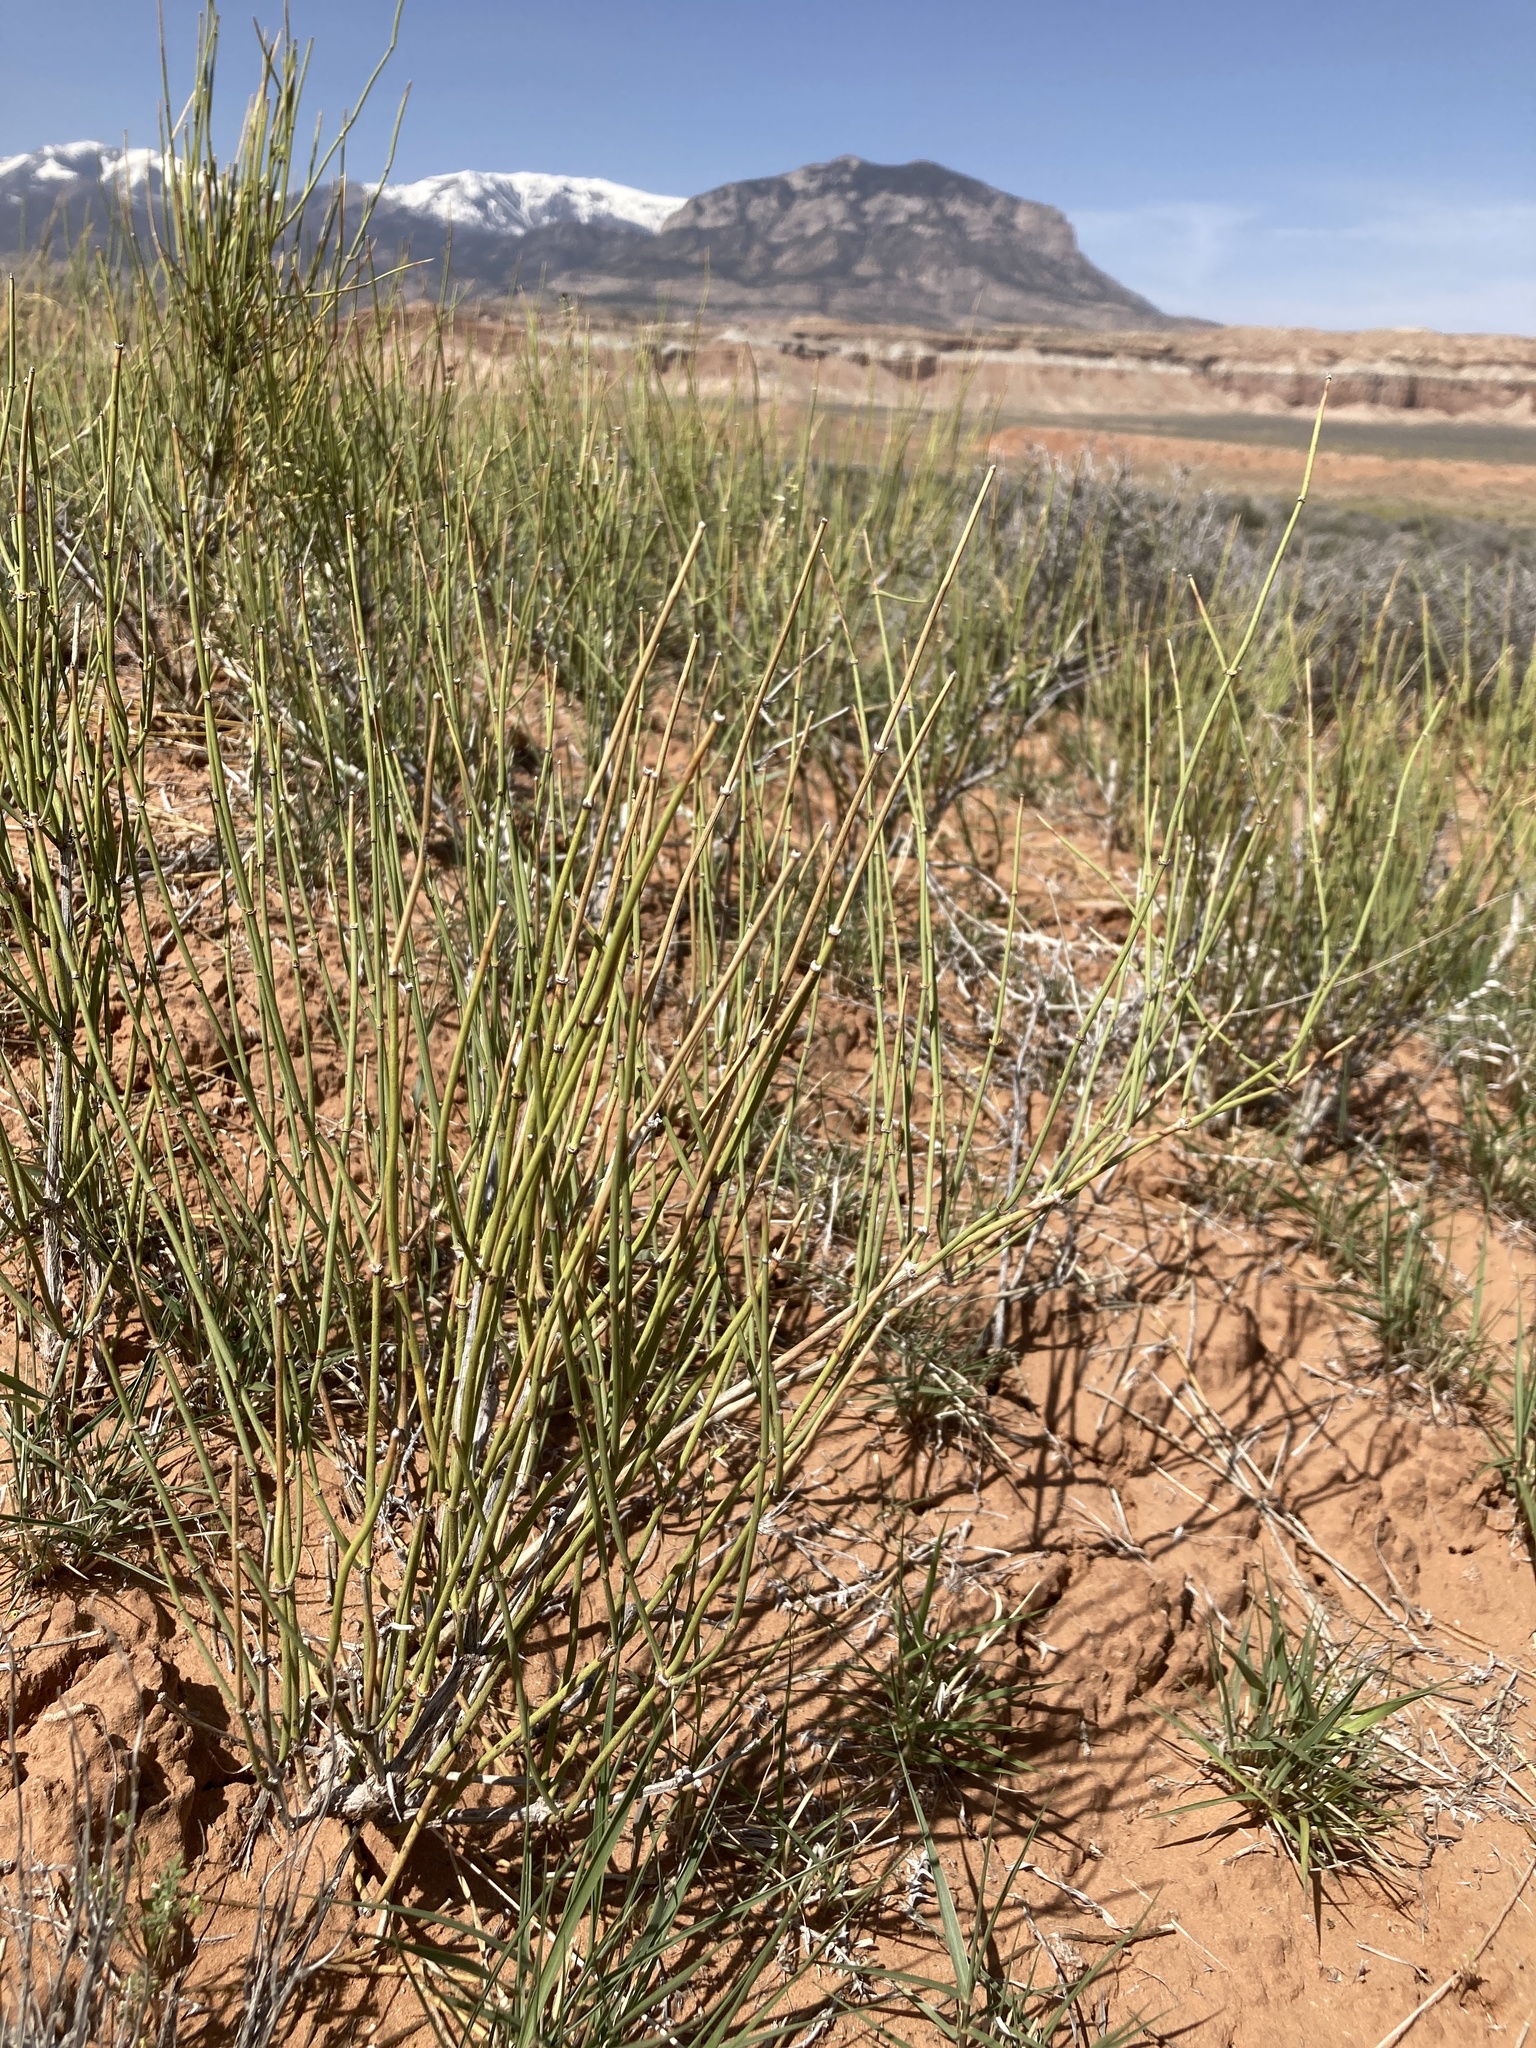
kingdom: Plantae
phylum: Tracheophyta
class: Gnetopsida
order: Ephedrales
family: Ephedraceae
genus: Ephedra
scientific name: Ephedra cutleri
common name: Cutler morning-tea
